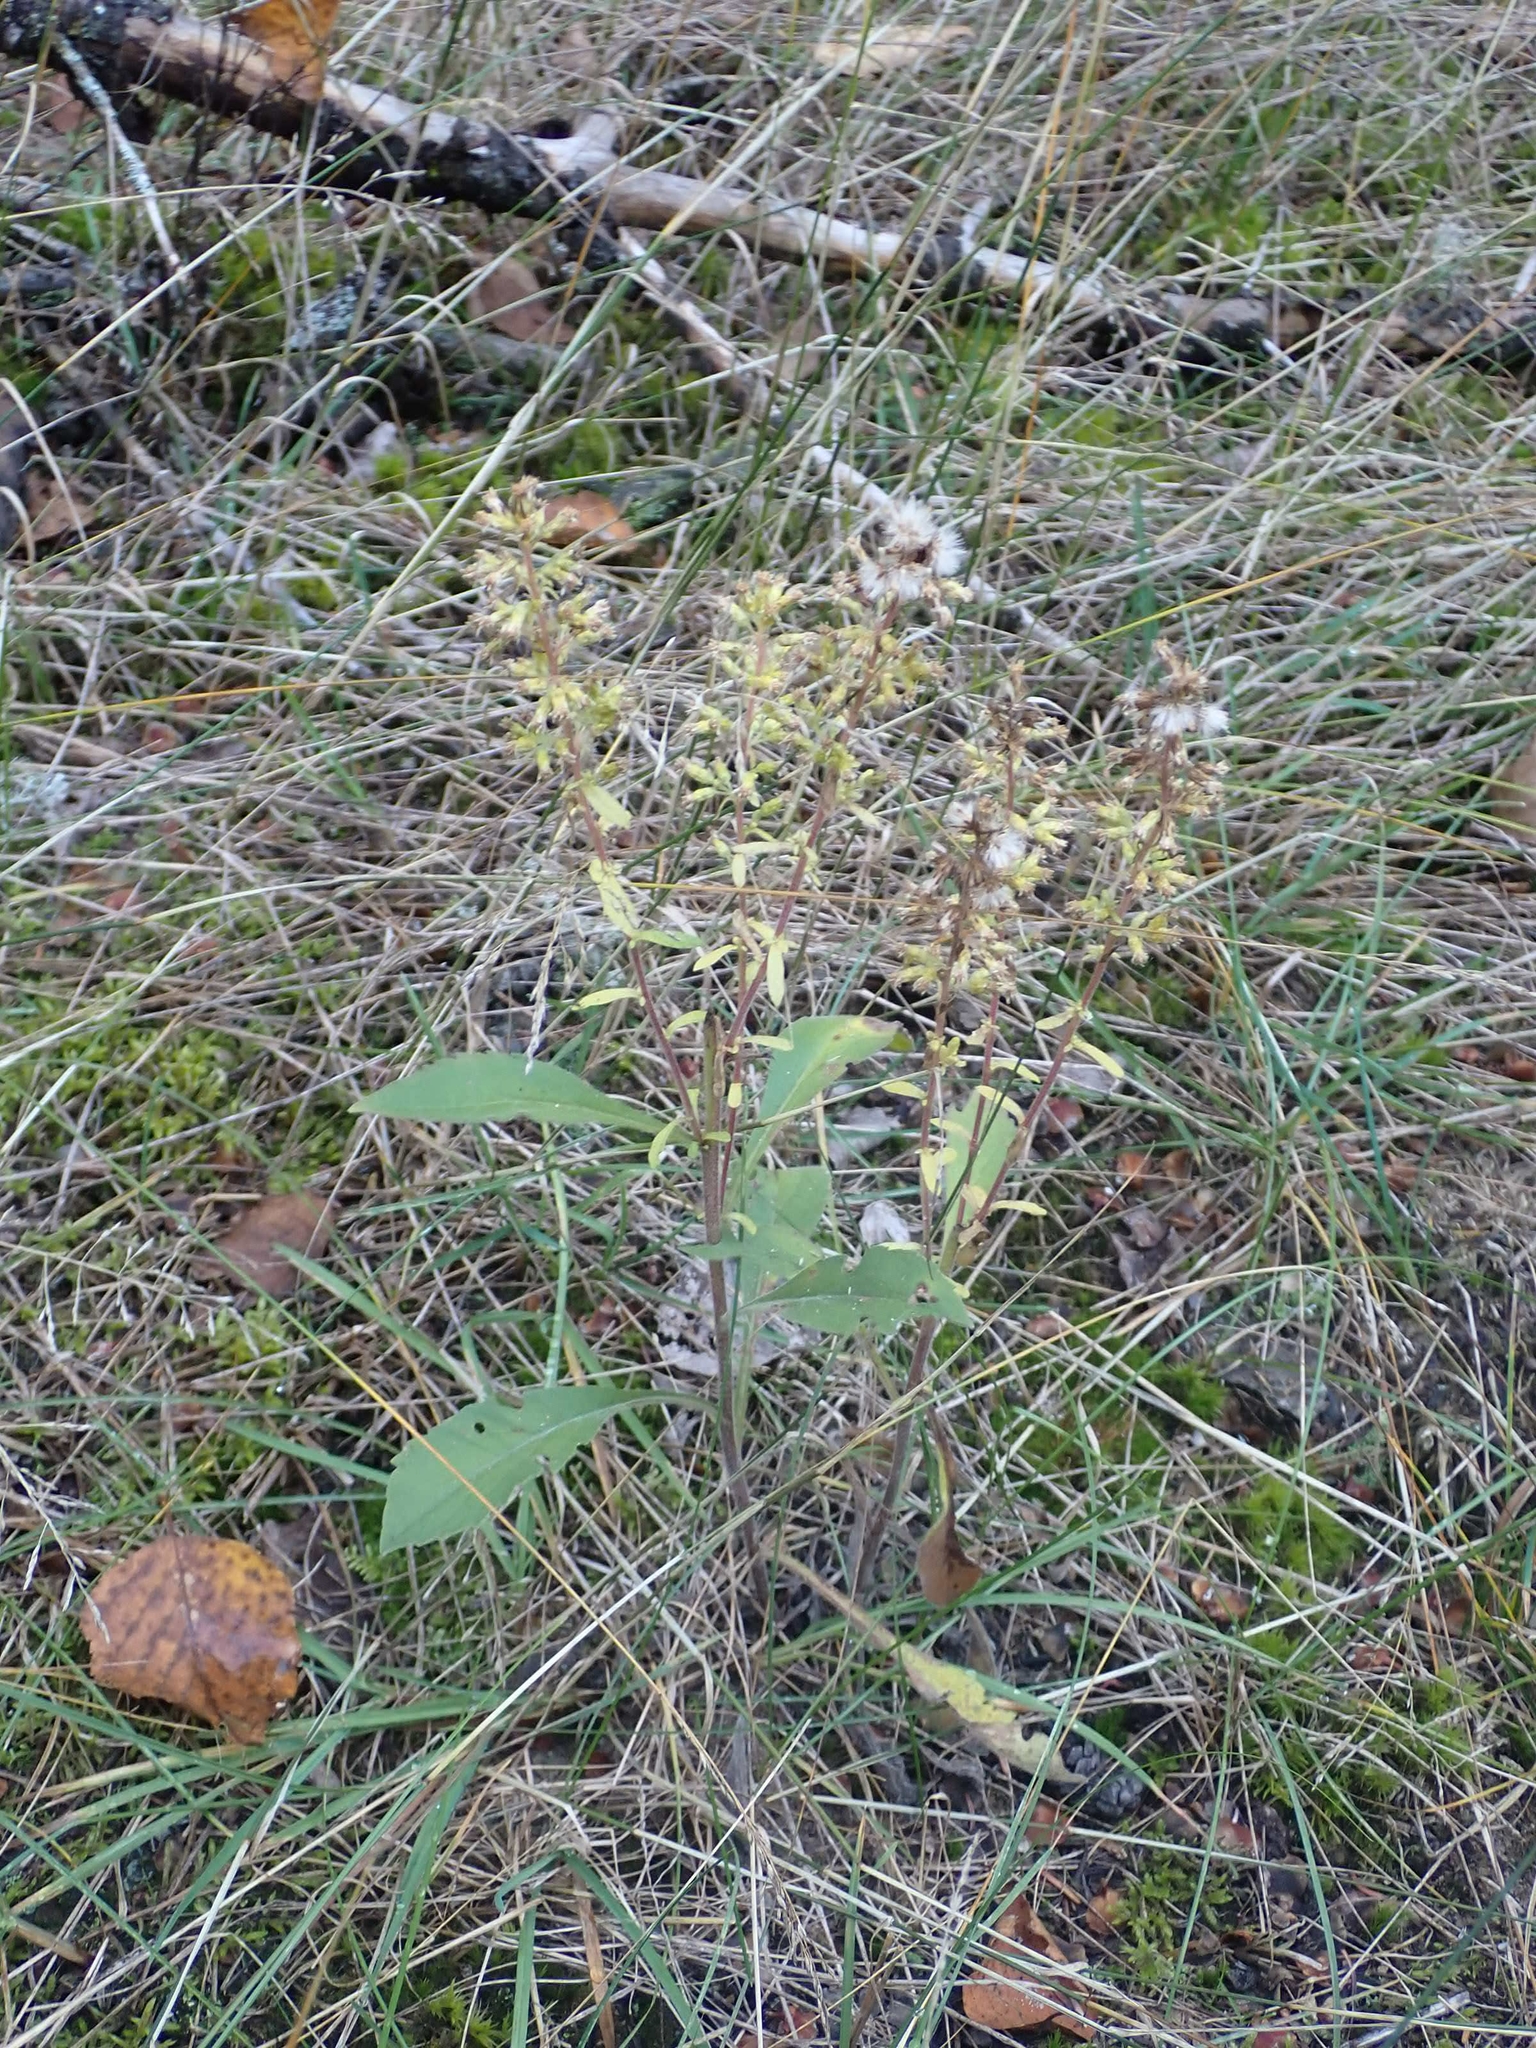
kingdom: Plantae
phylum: Tracheophyta
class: Magnoliopsida
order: Asterales
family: Asteraceae
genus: Solidago
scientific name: Solidago hispida
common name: Hairy goldenrod
